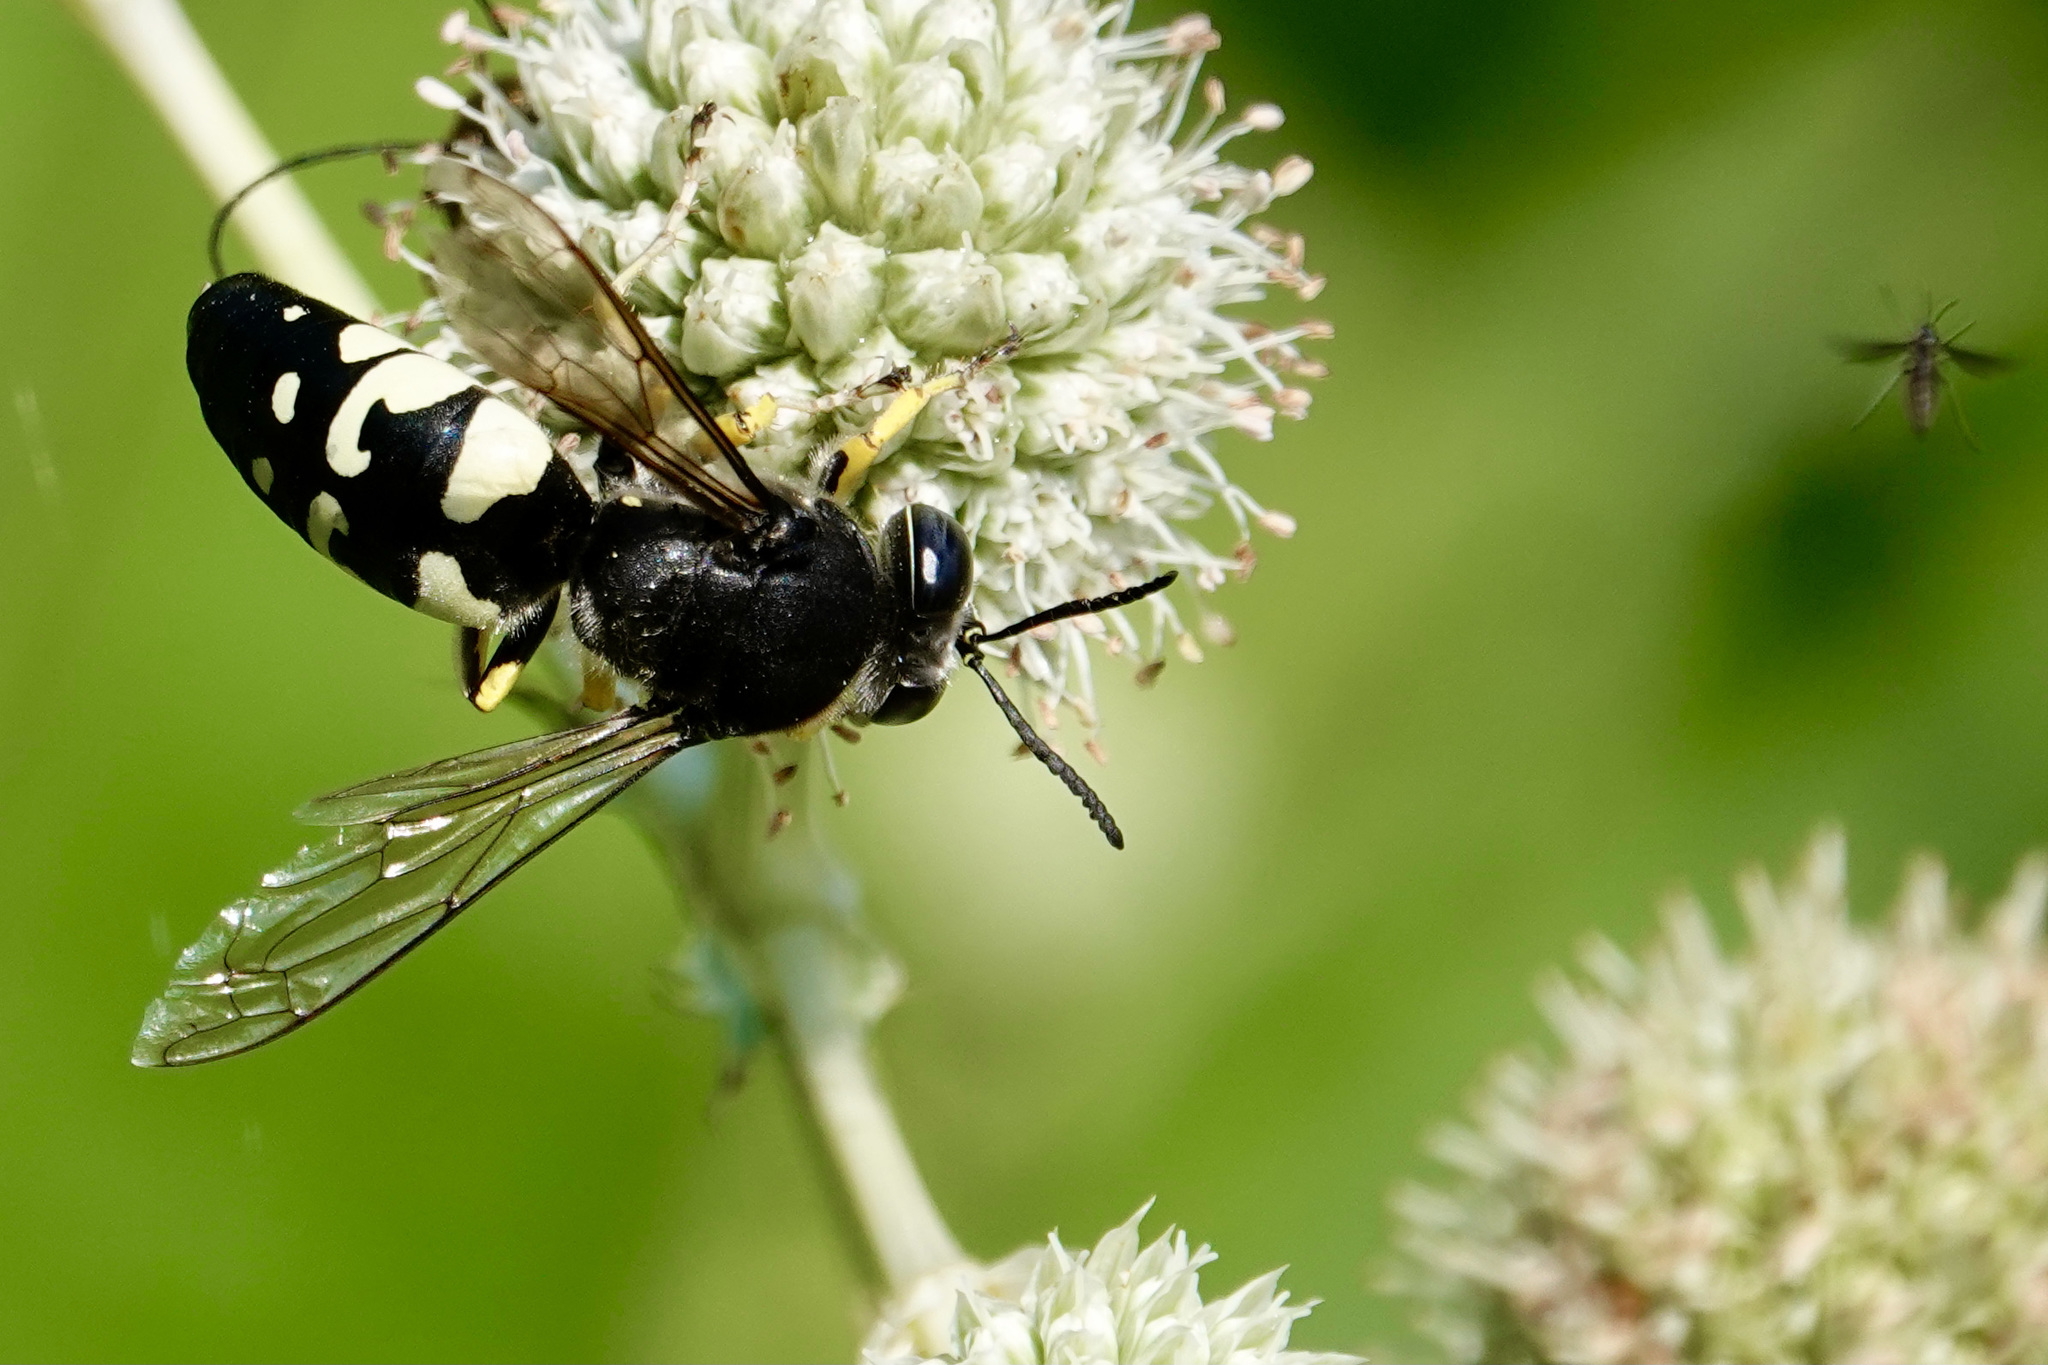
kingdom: Animalia
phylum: Arthropoda
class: Insecta
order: Hymenoptera
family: Crabronidae
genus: Stictia
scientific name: Stictia carolina
